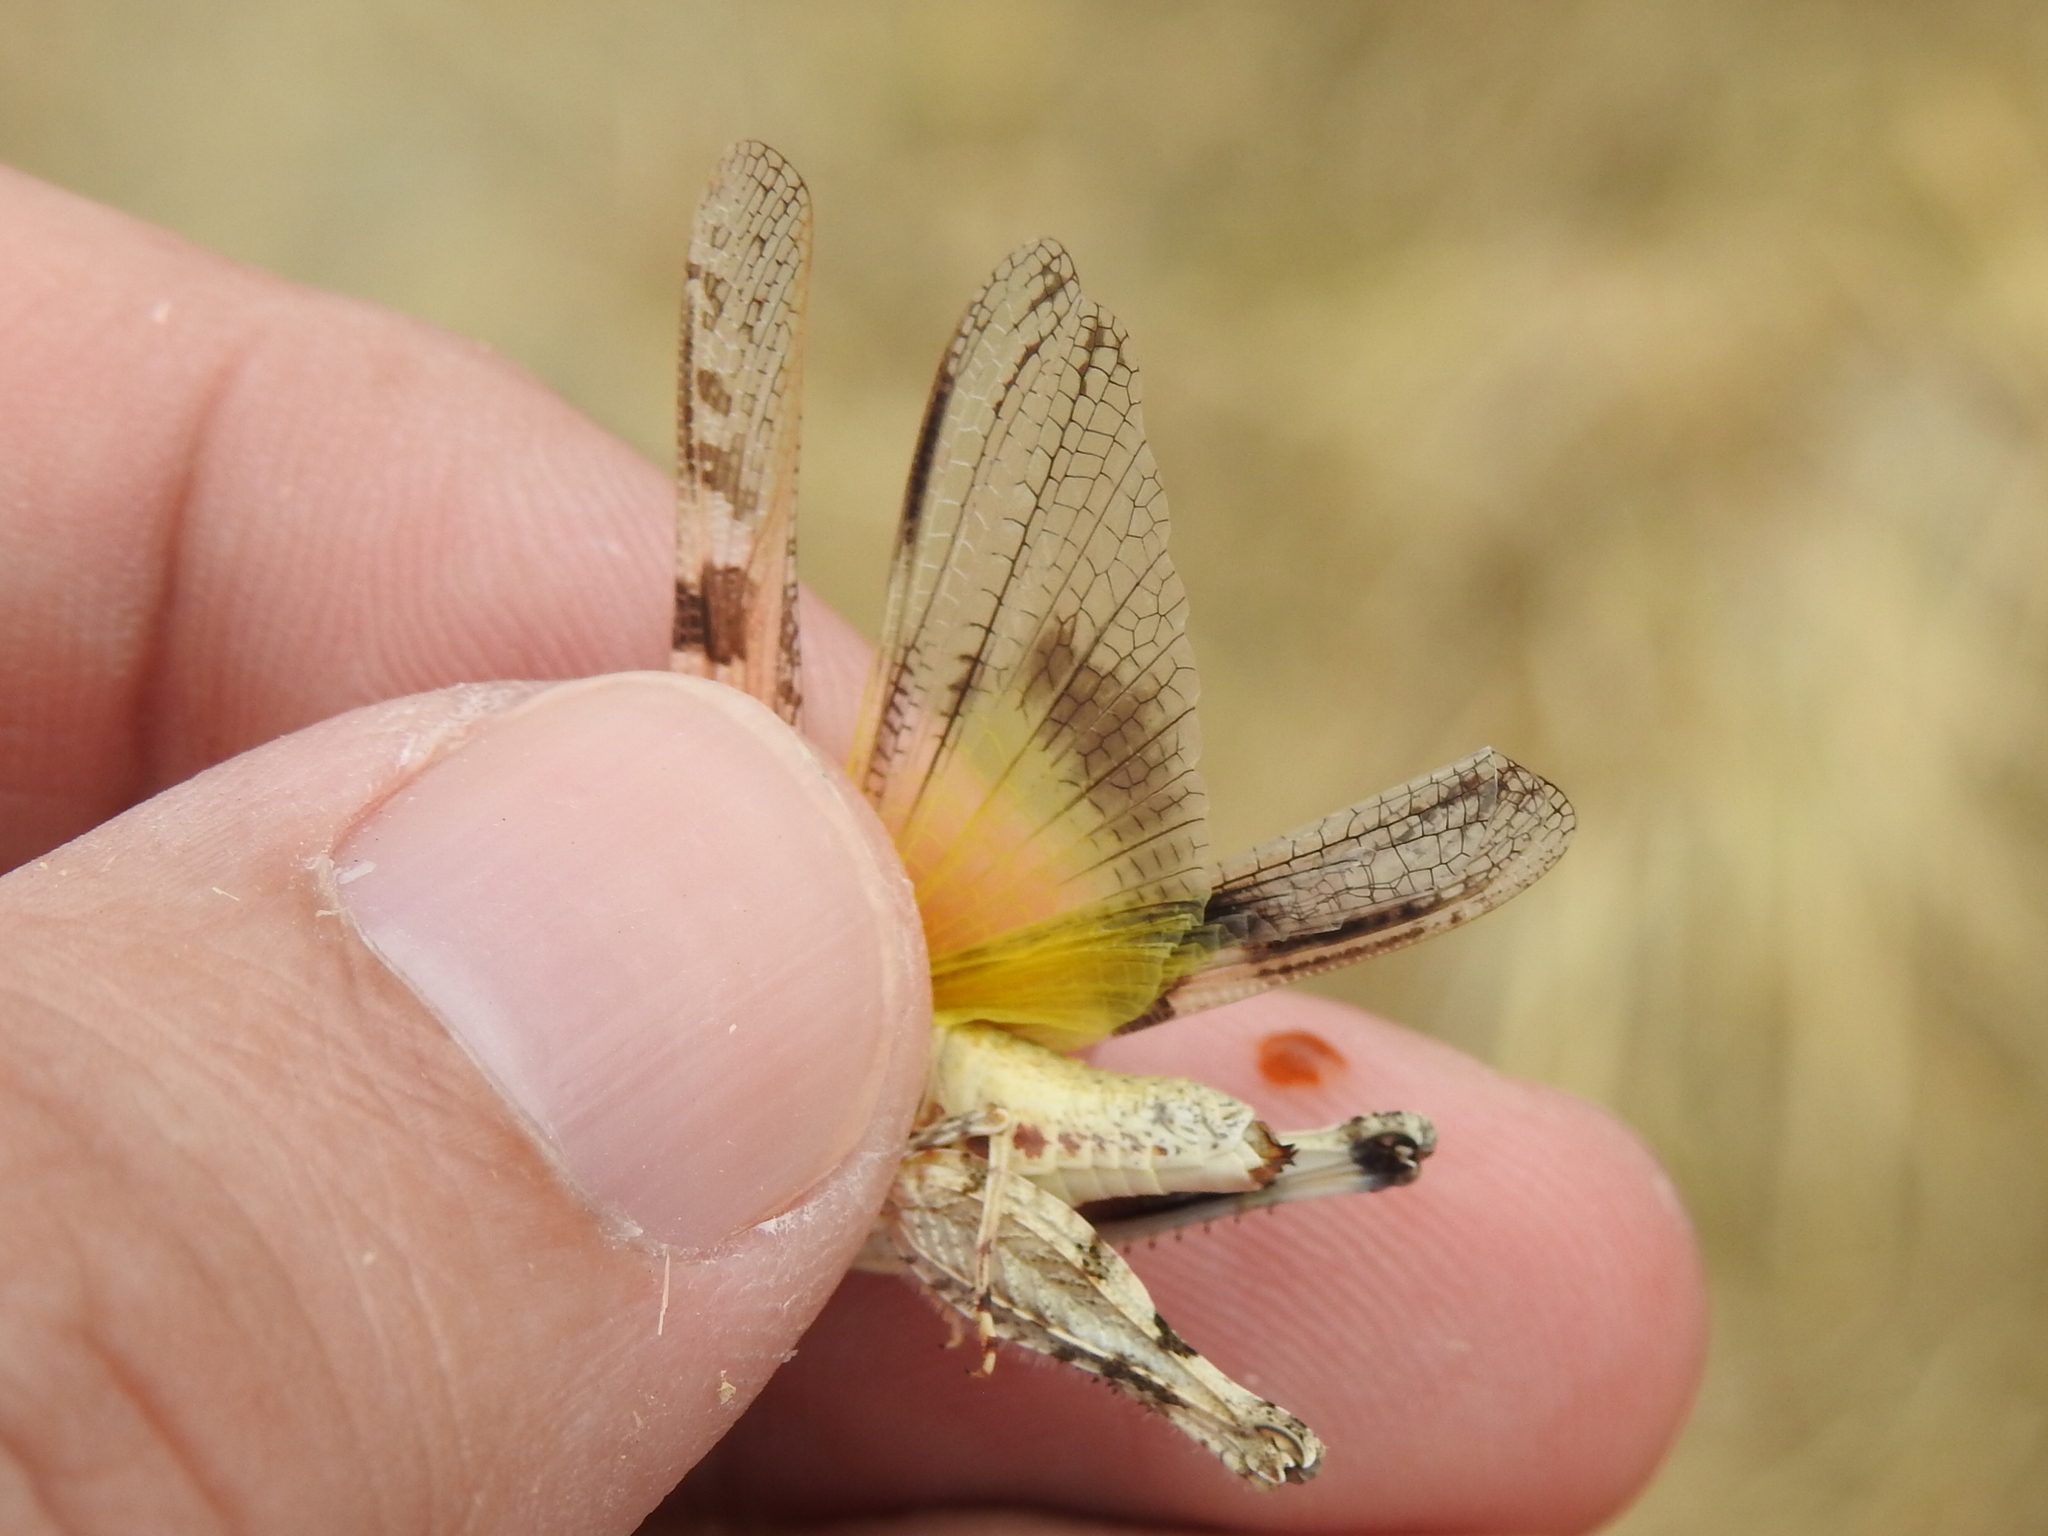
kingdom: Animalia
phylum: Arthropoda
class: Insecta
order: Orthoptera
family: Acrididae
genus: Trachyrhachys
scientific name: Trachyrhachys kiowa
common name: Kiowa grasshopper
